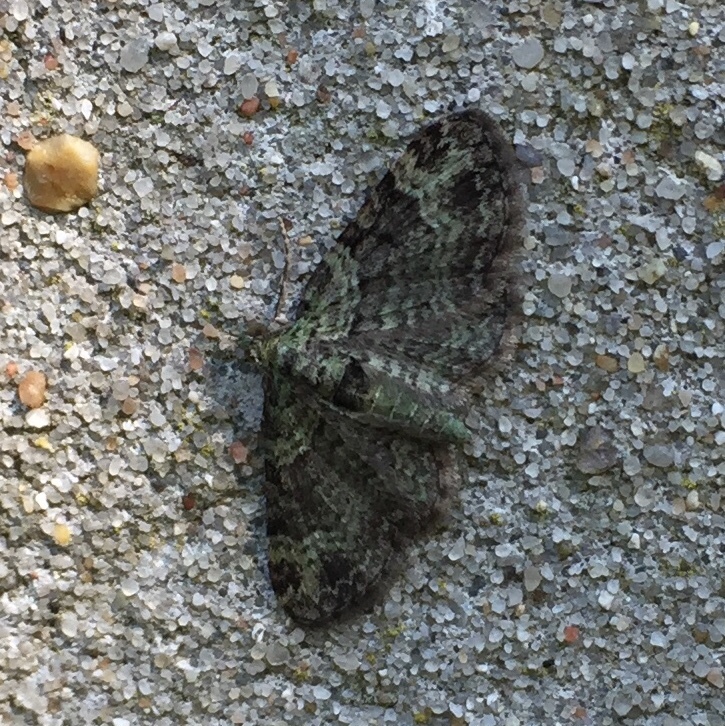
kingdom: Animalia
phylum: Arthropoda
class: Insecta
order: Lepidoptera
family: Geometridae
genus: Pasiphila
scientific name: Pasiphila rectangulata
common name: Green pug
